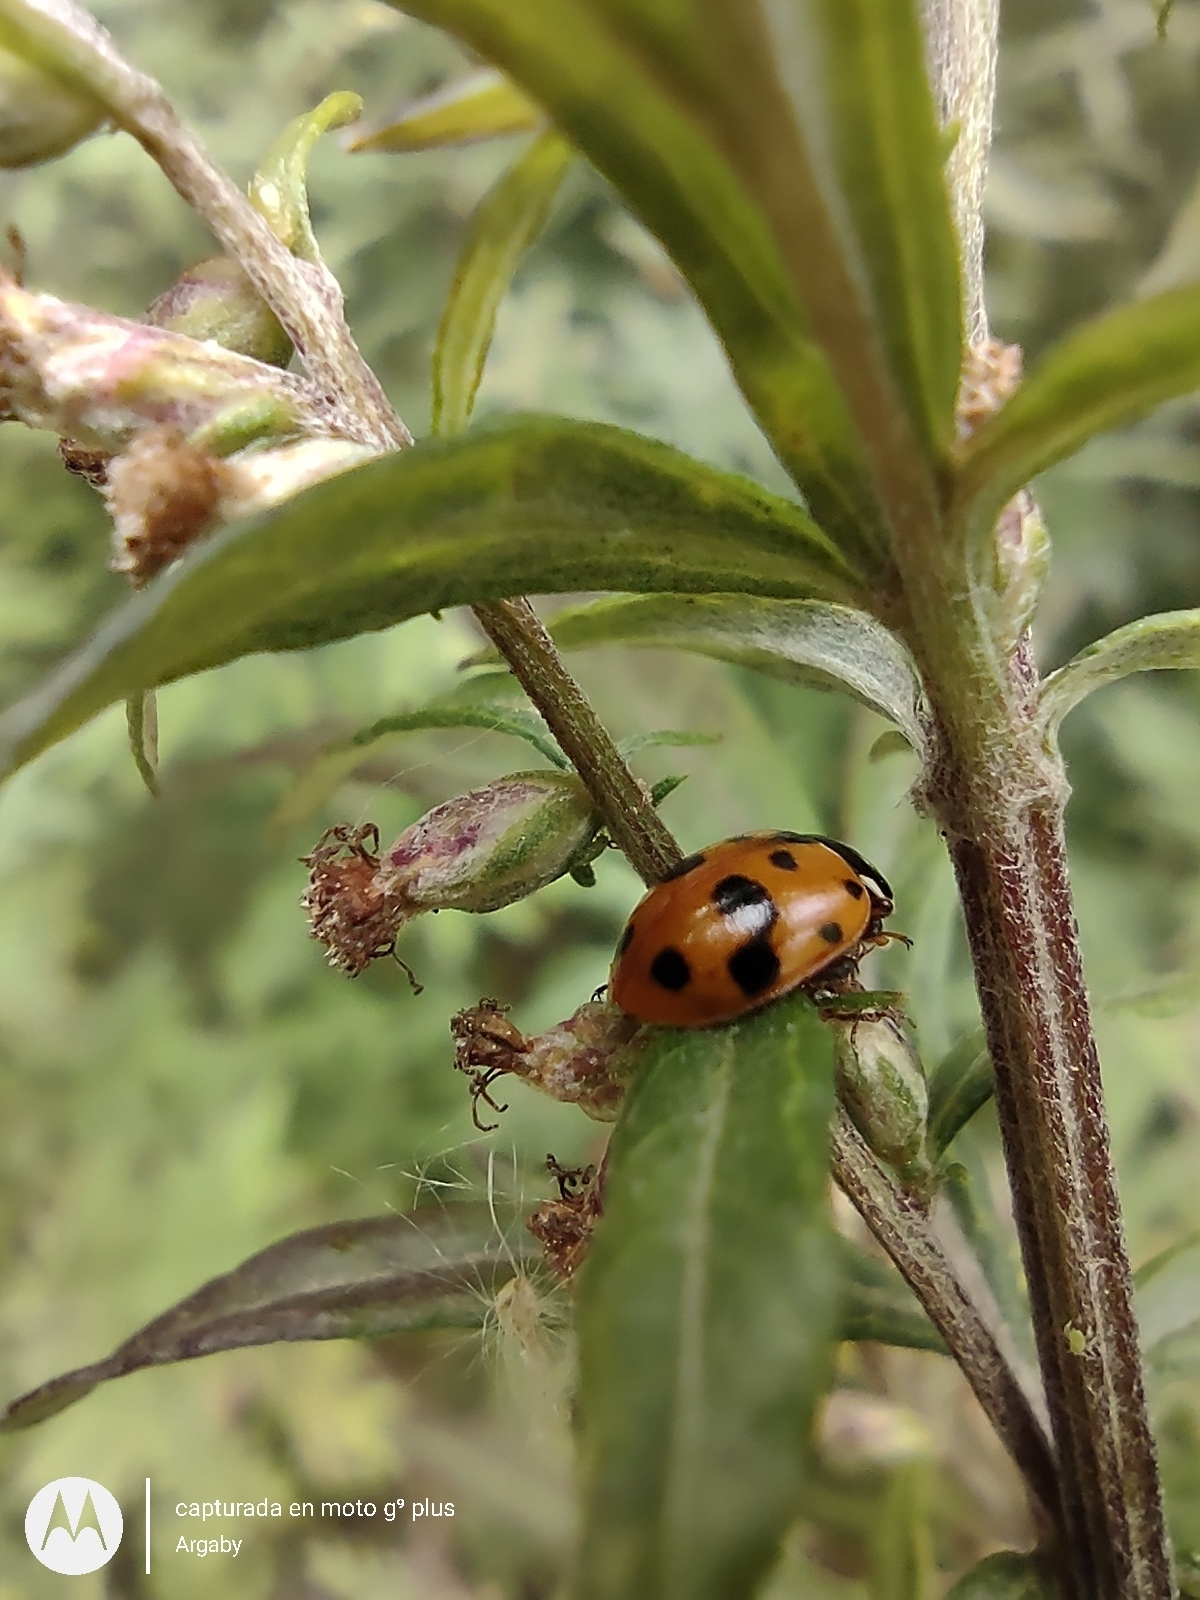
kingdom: Animalia
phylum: Arthropoda
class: Insecta
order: Coleoptera
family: Coccinellidae
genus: Hippodamia
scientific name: Hippodamia variegata
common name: Ladybird beetle
